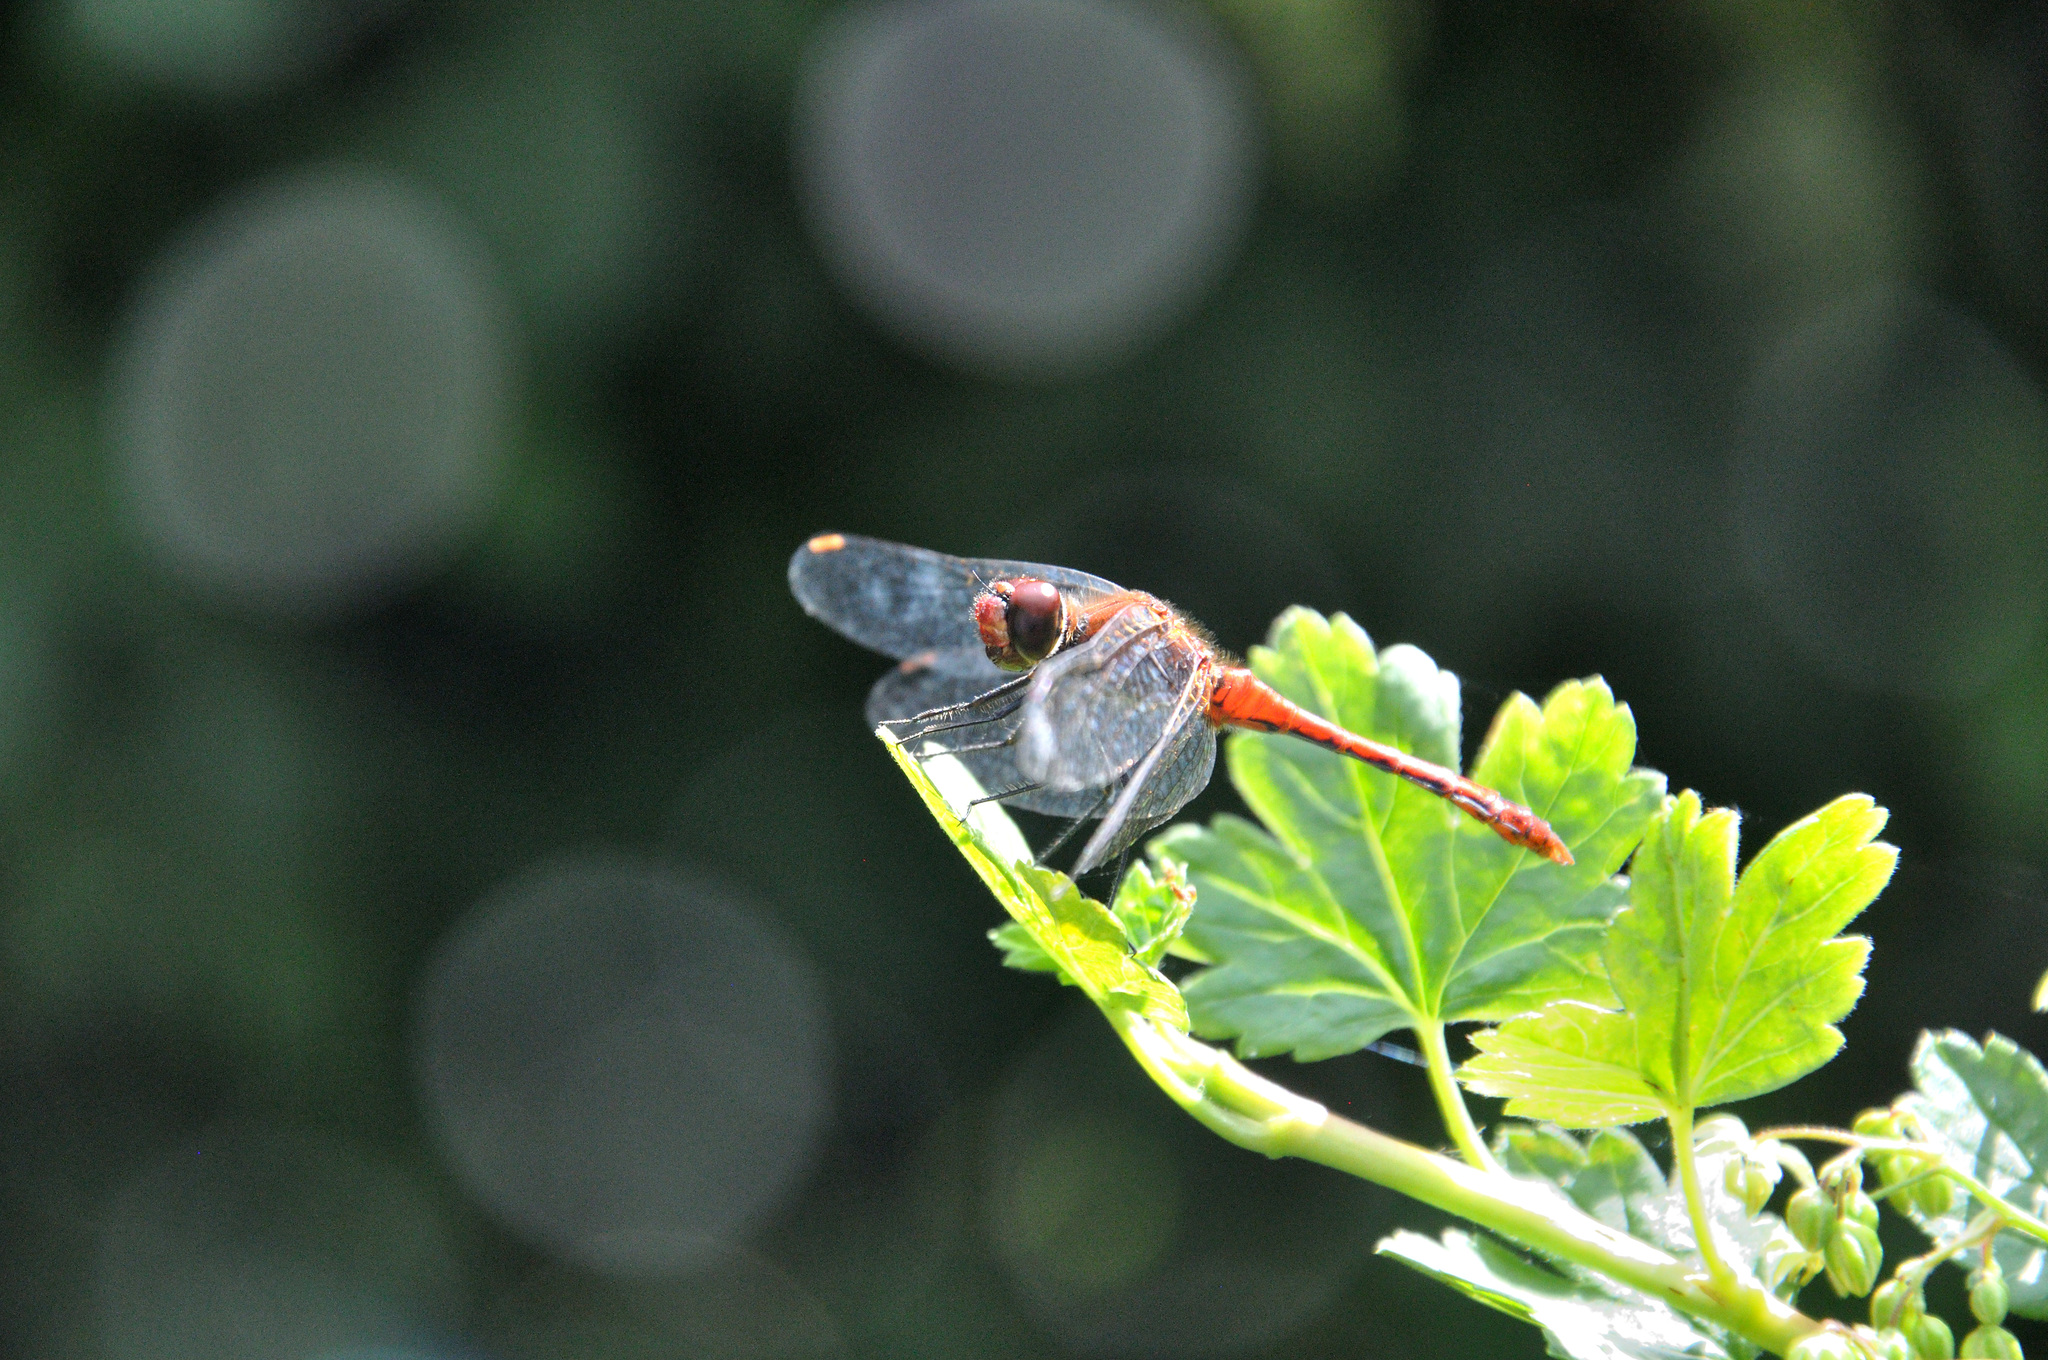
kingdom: Animalia
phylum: Arthropoda
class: Insecta
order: Odonata
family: Libellulidae
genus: Sympetrum
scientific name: Sympetrum sanguineum
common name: Ruddy darter
